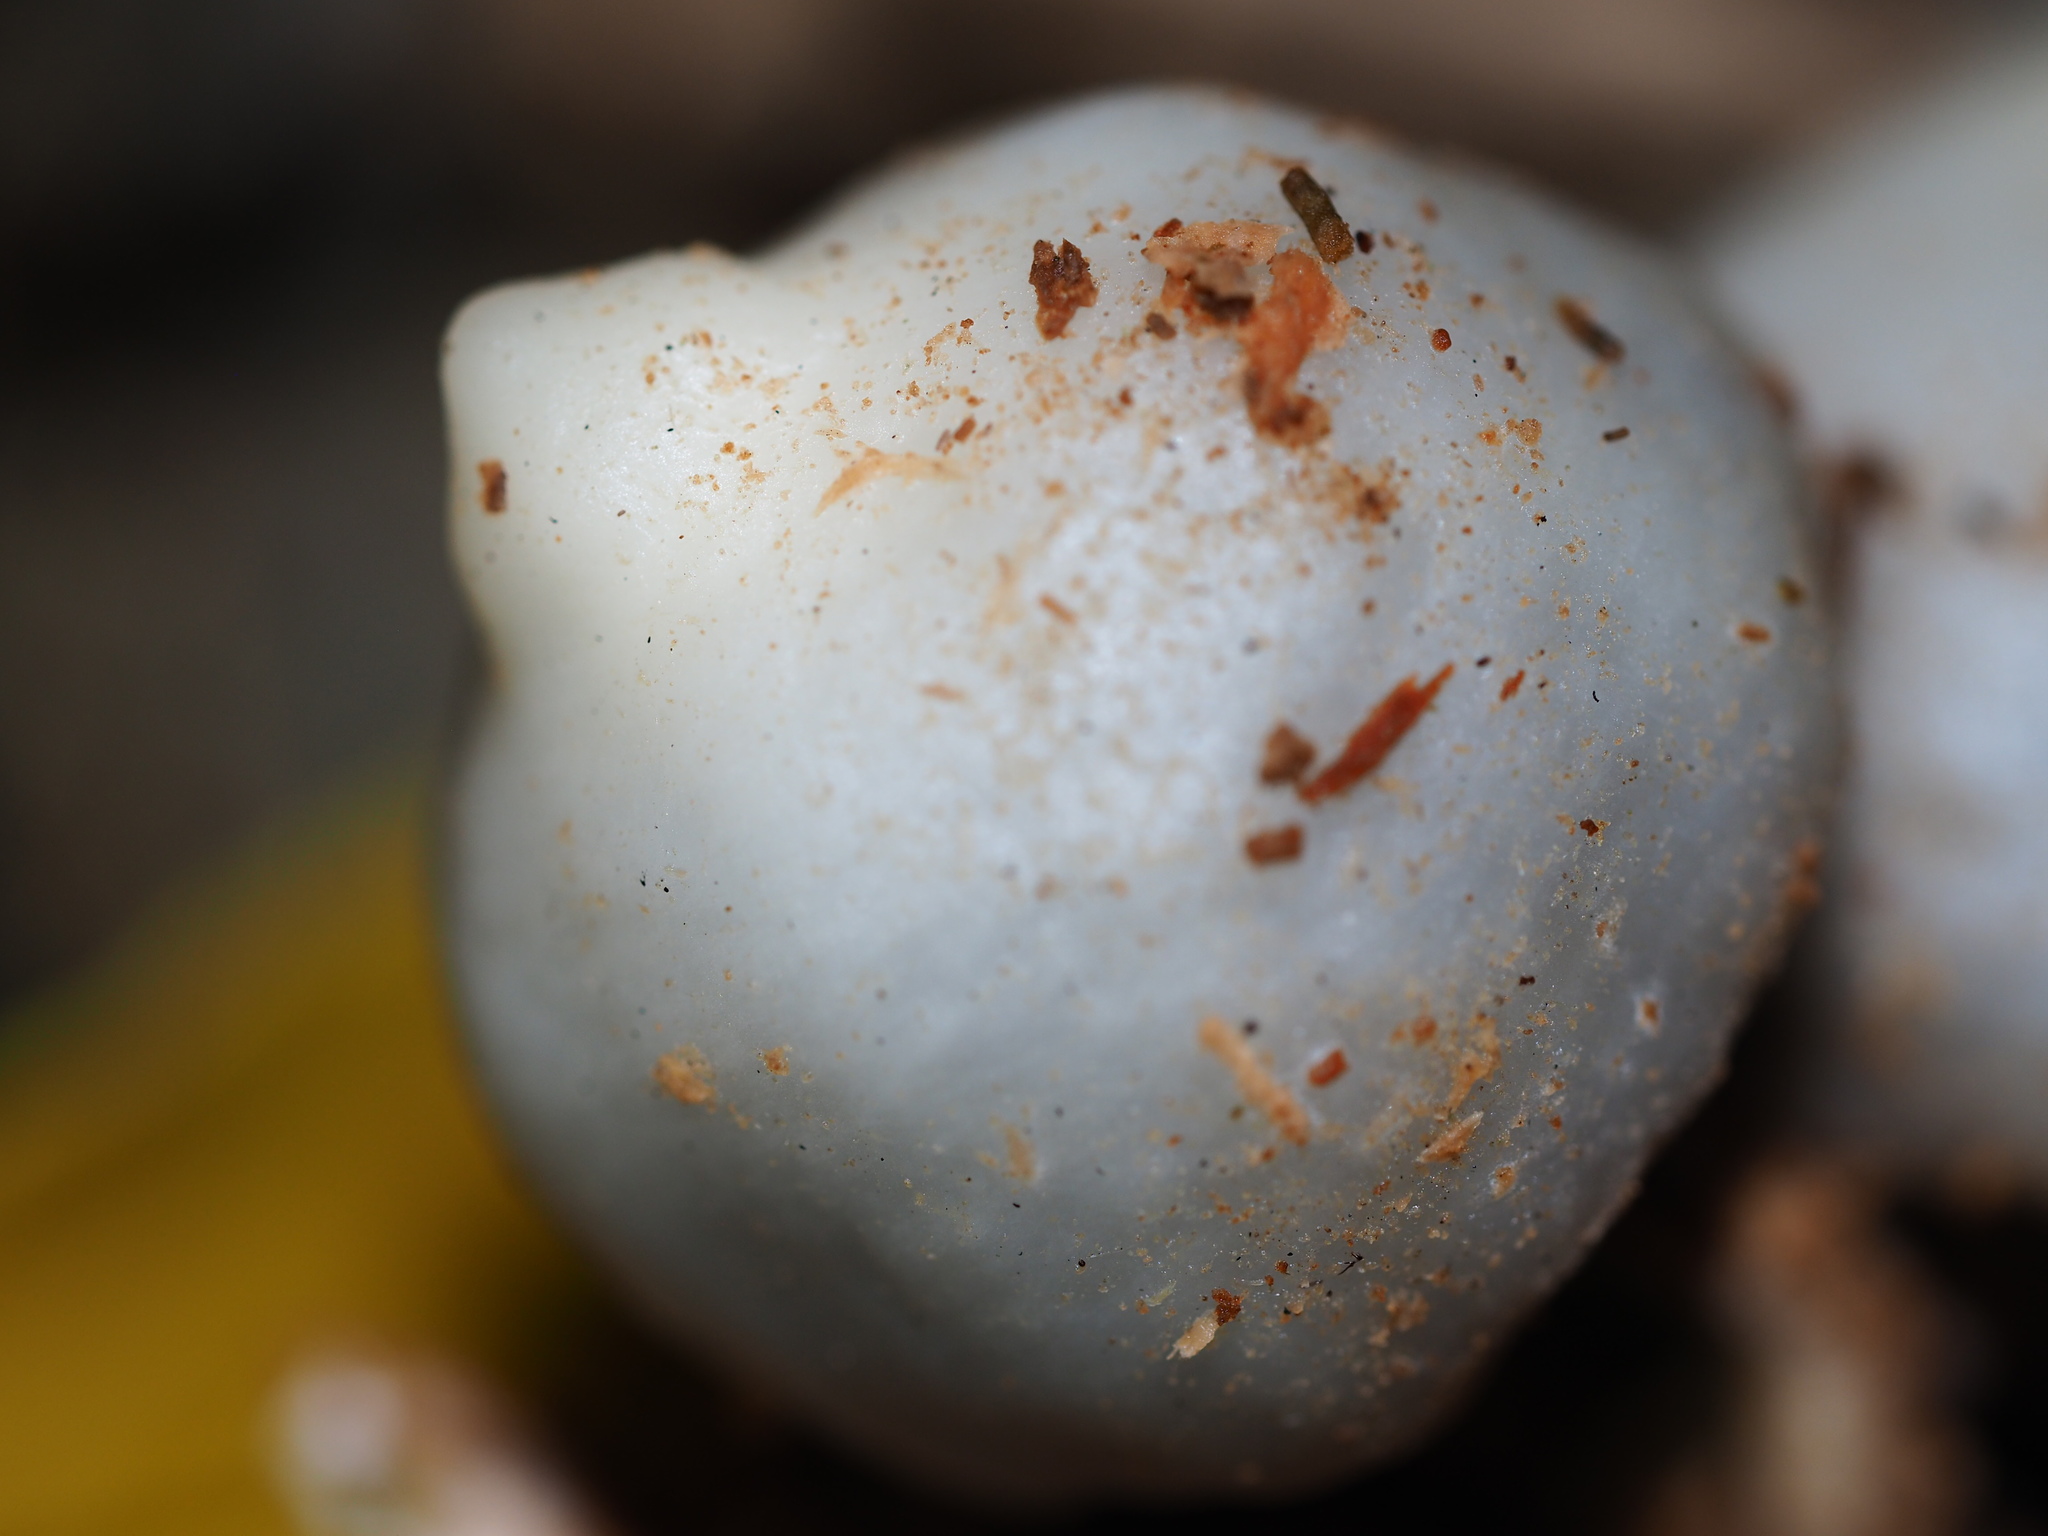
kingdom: Fungi
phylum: Basidiomycota
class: Agaricomycetes
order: Agaricales
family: Hymenogastraceae
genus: Psilocybe
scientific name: Psilocybe weraroa
